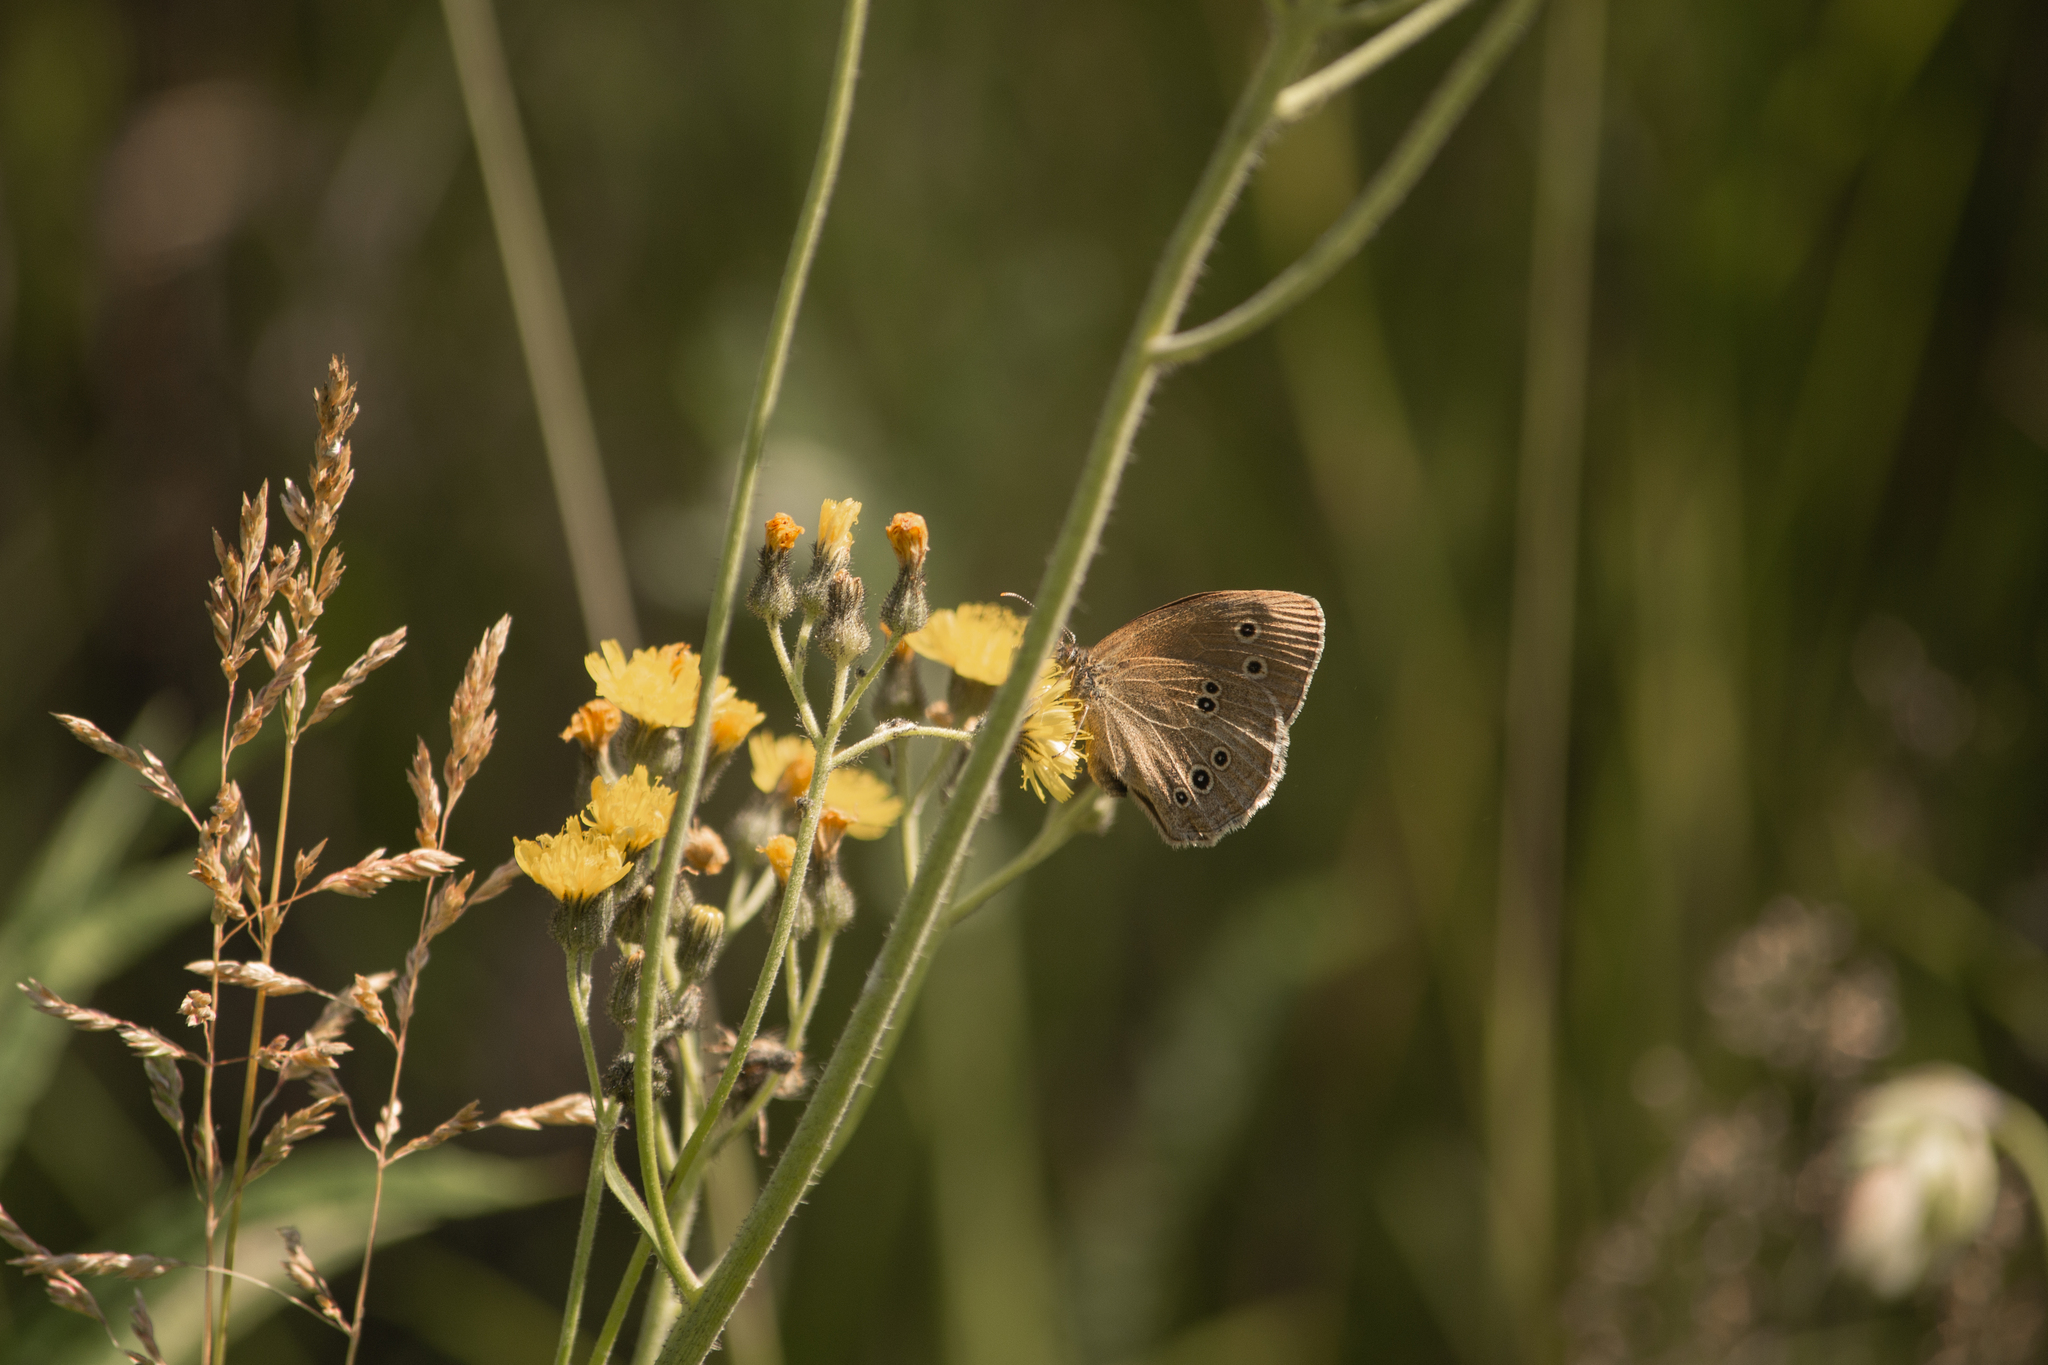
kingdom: Animalia
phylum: Arthropoda
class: Insecta
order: Lepidoptera
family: Nymphalidae
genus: Aphantopus
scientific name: Aphantopus hyperantus
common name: Ringlet
